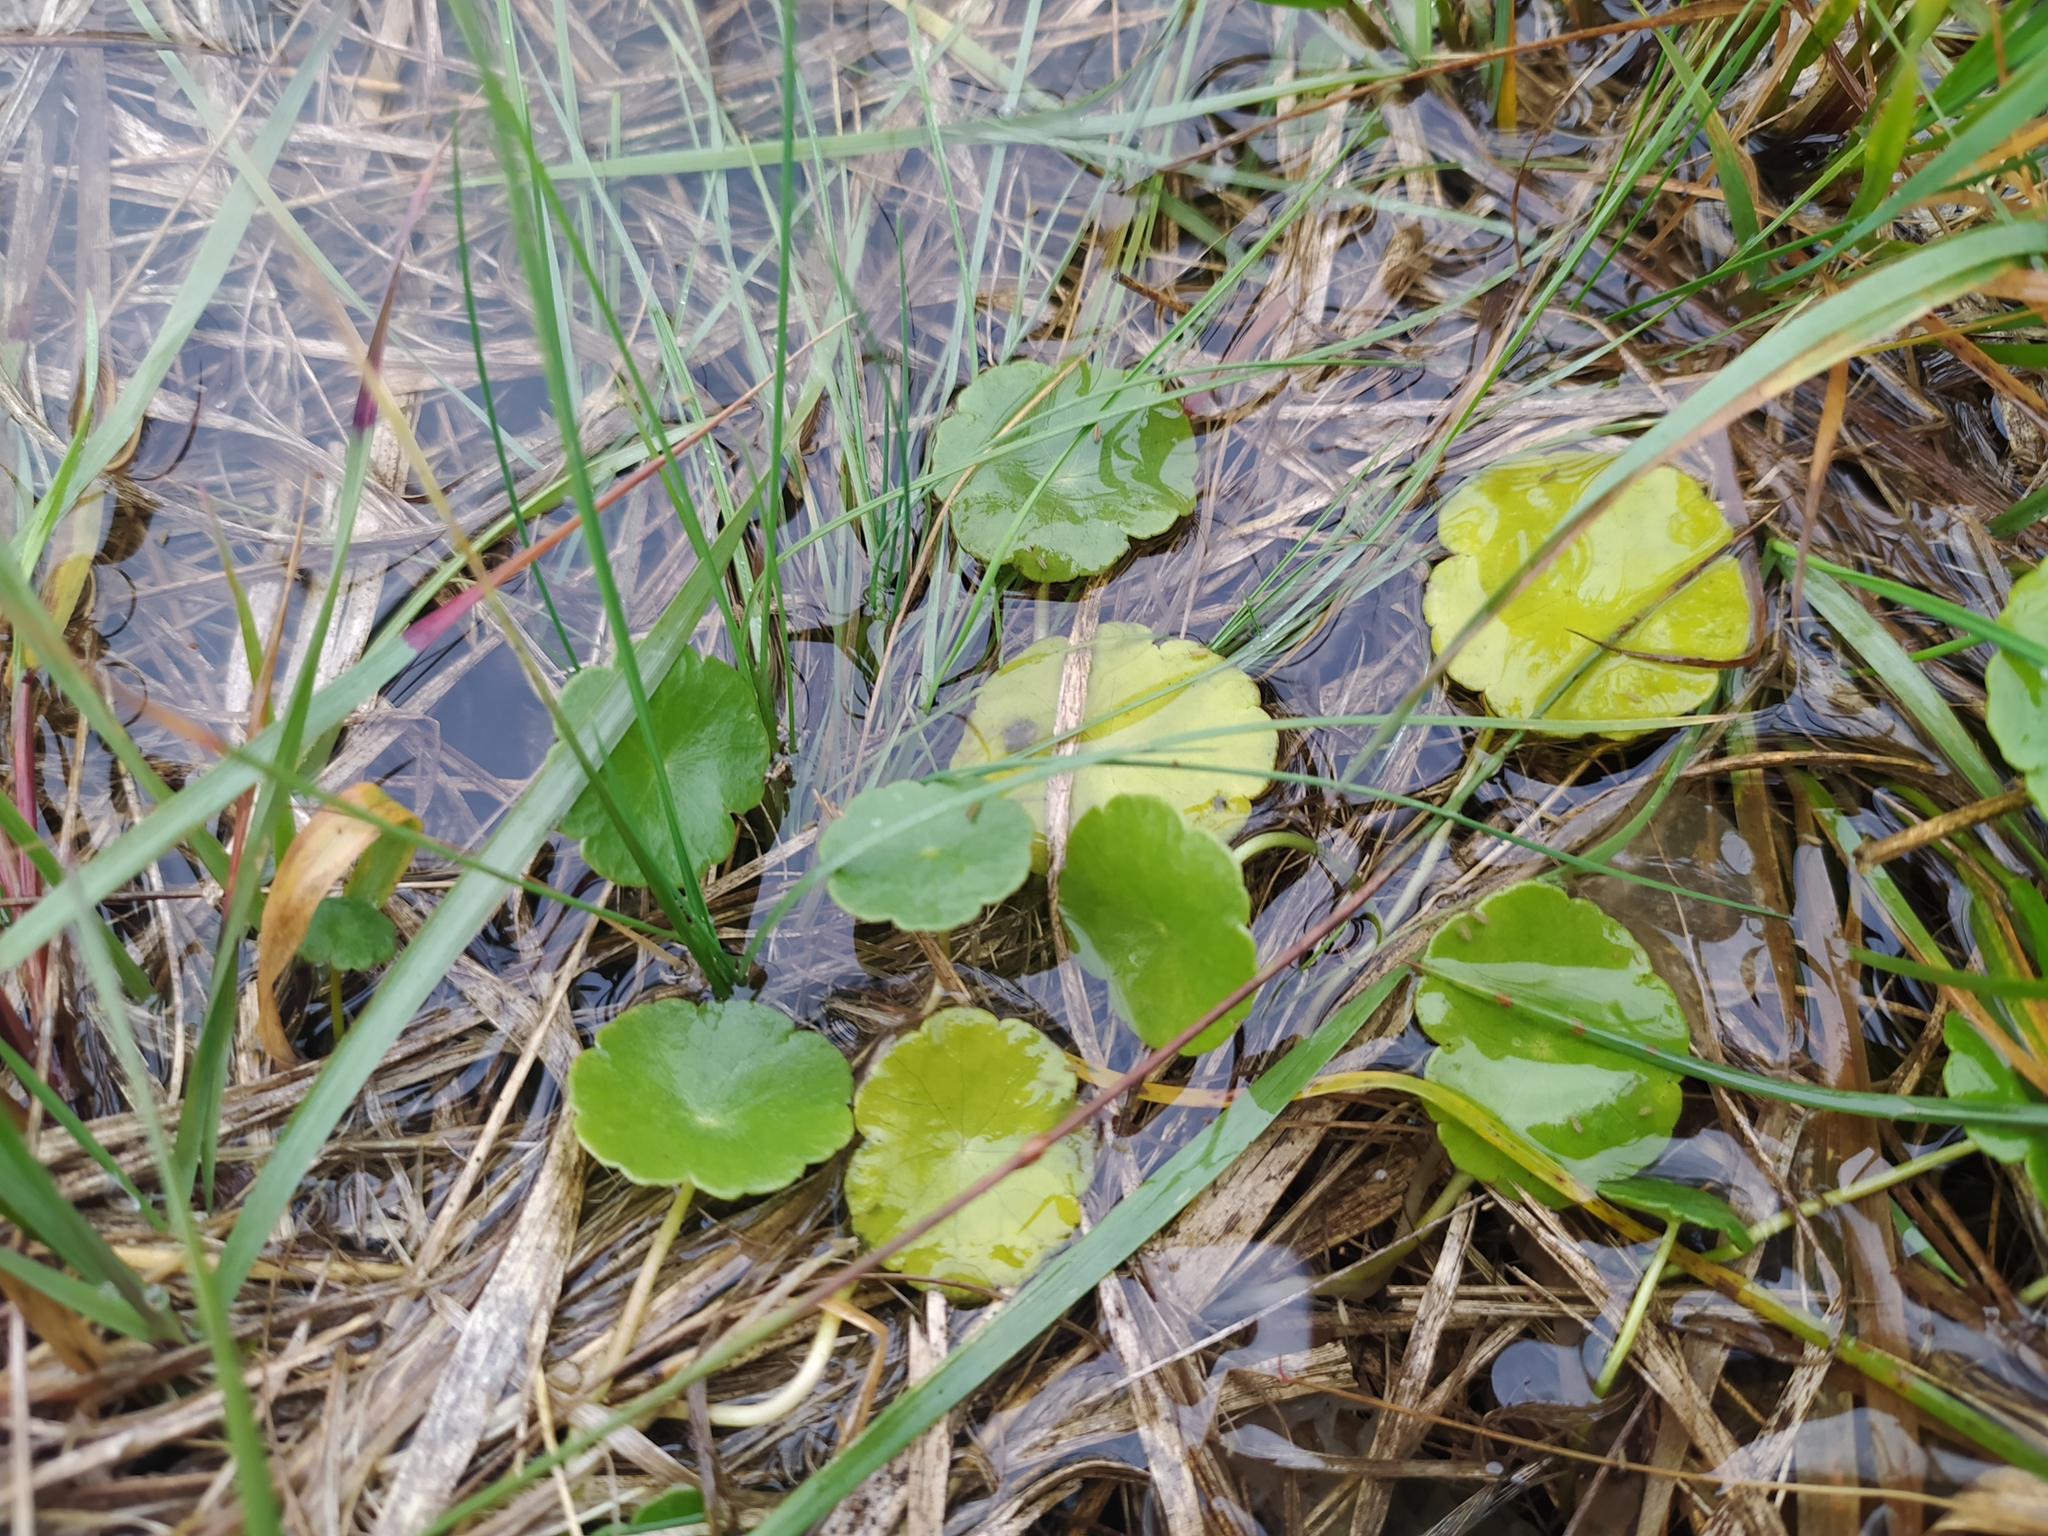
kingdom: Plantae
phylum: Tracheophyta
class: Magnoliopsida
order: Apiales
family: Araliaceae
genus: Hydrocotyle
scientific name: Hydrocotyle vulgaris
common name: Marsh pennywort
